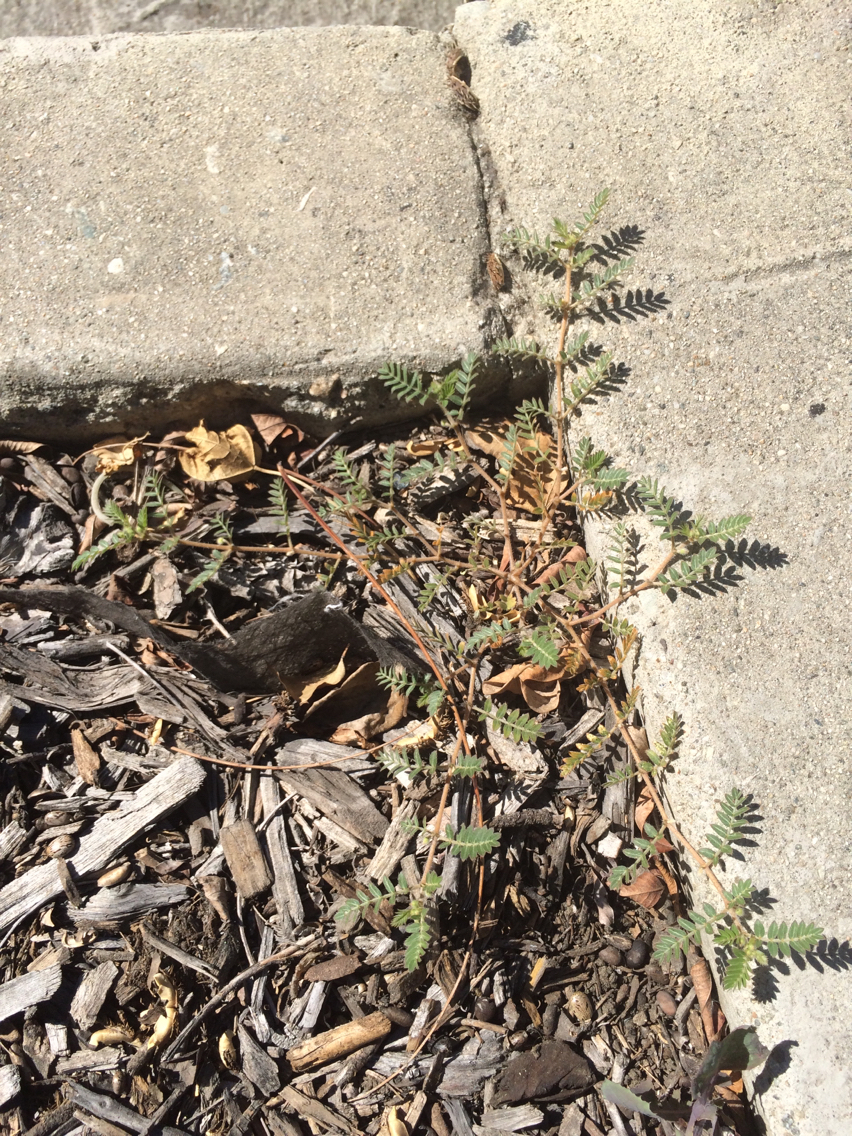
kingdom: Plantae
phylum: Tracheophyta
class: Magnoliopsida
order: Zygophyllales
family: Zygophyllaceae
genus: Tribulus
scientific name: Tribulus terrestris
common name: Puncturevine
